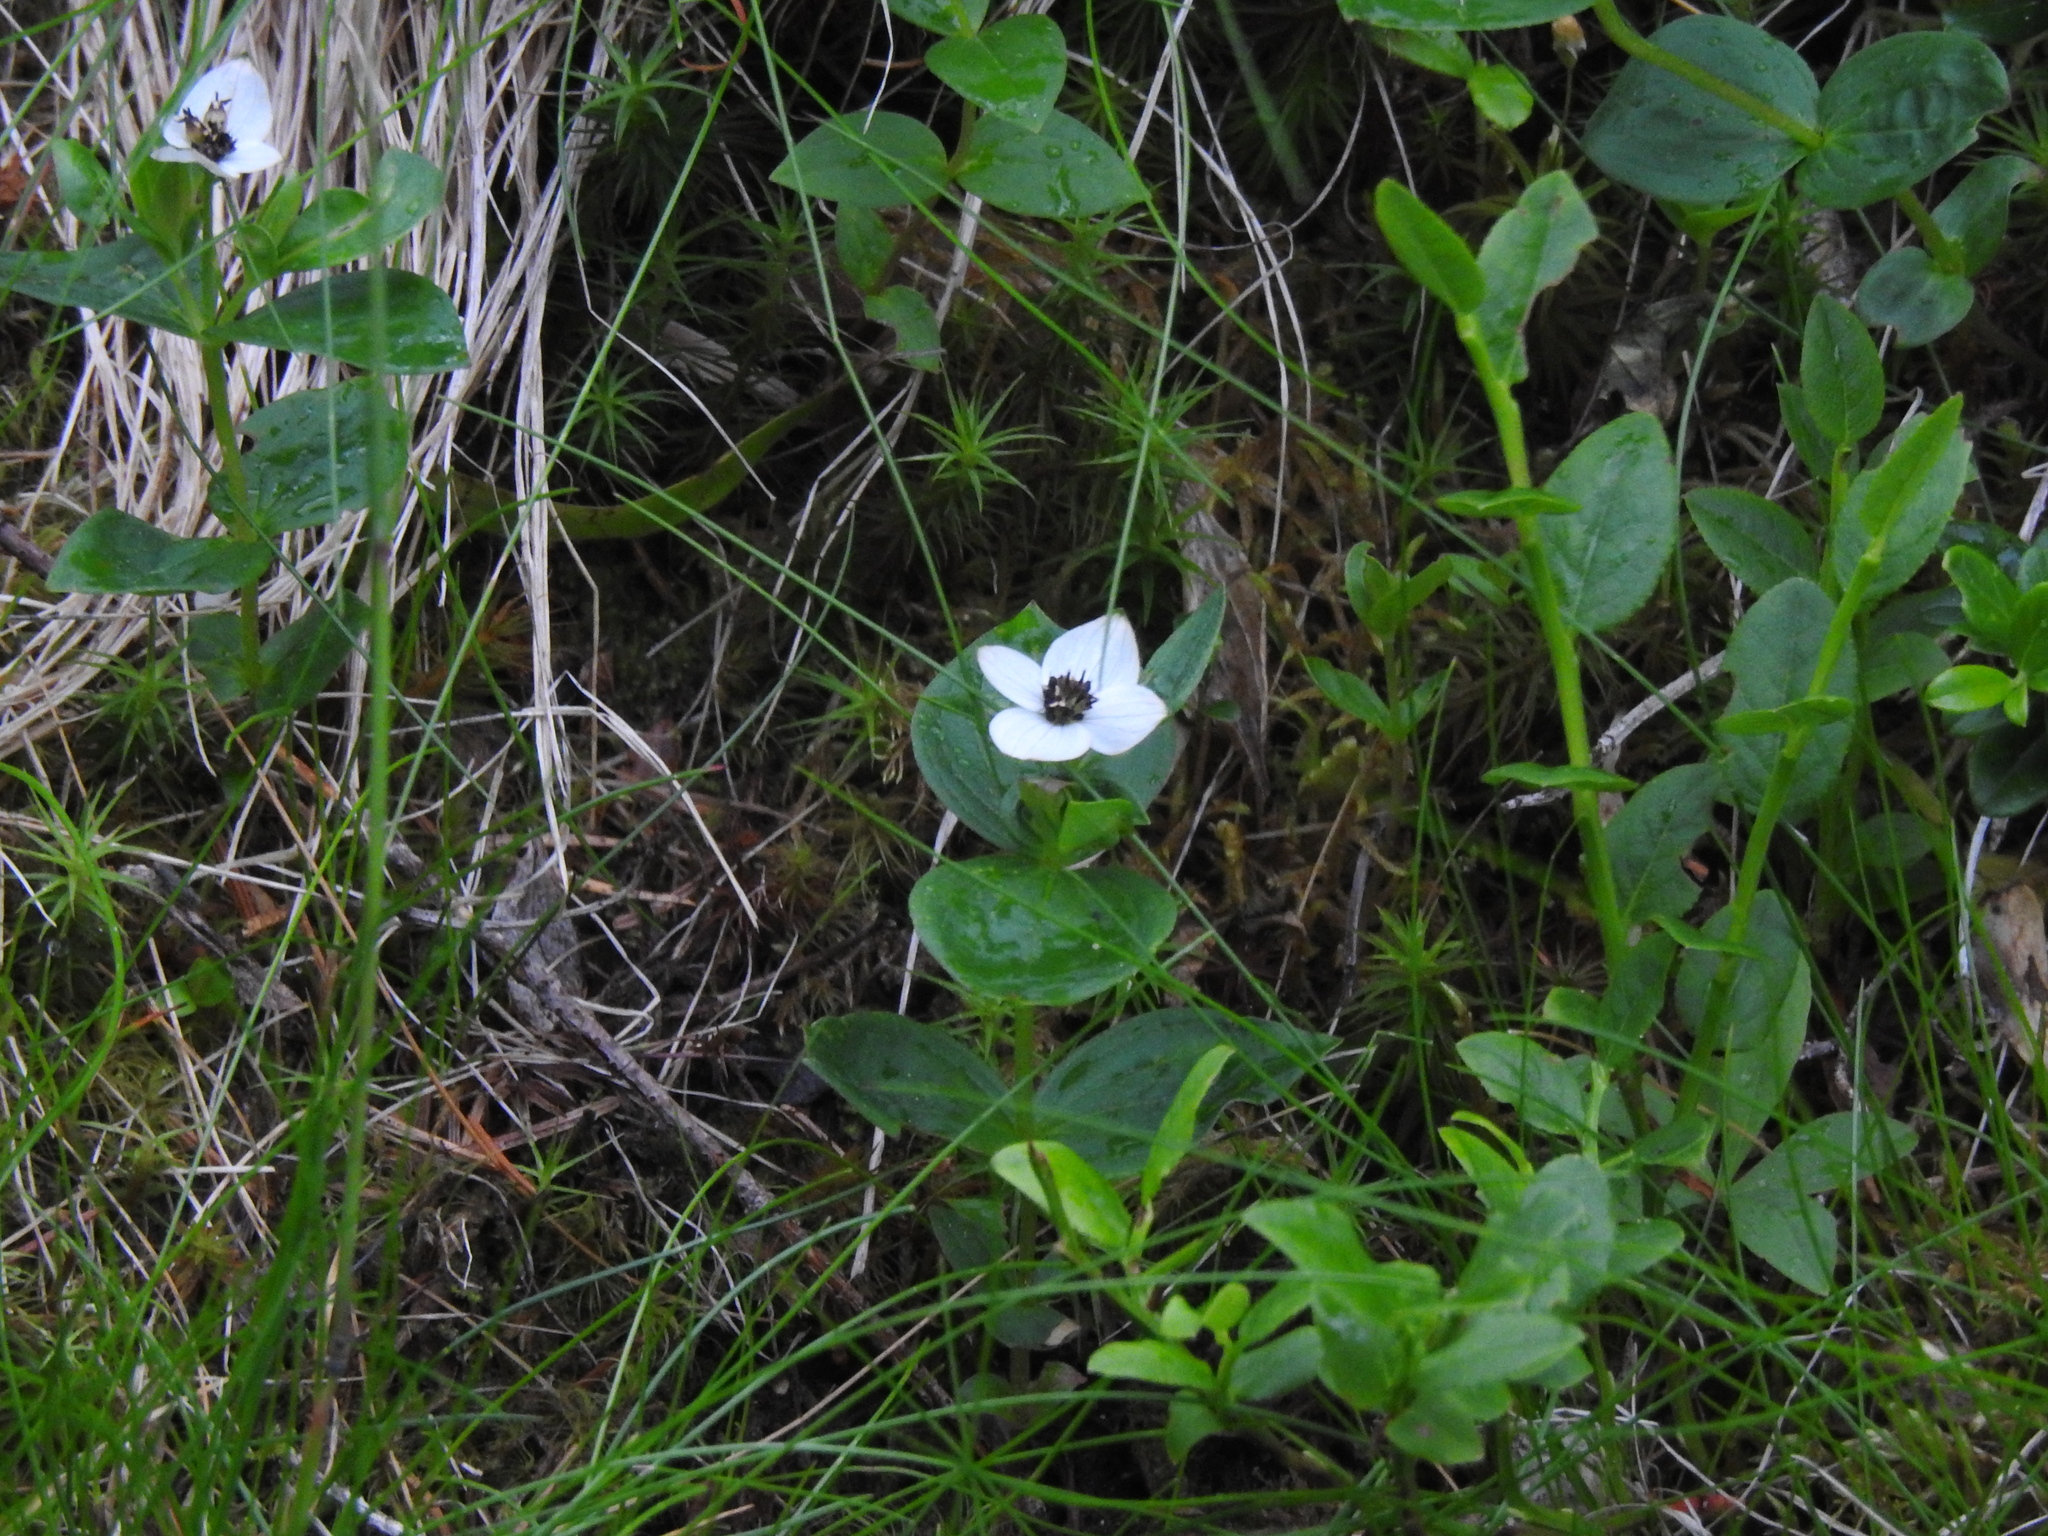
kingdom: Plantae
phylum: Tracheophyta
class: Magnoliopsida
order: Cornales
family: Cornaceae
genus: Cornus
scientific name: Cornus suecica
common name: Dwarf cornel
